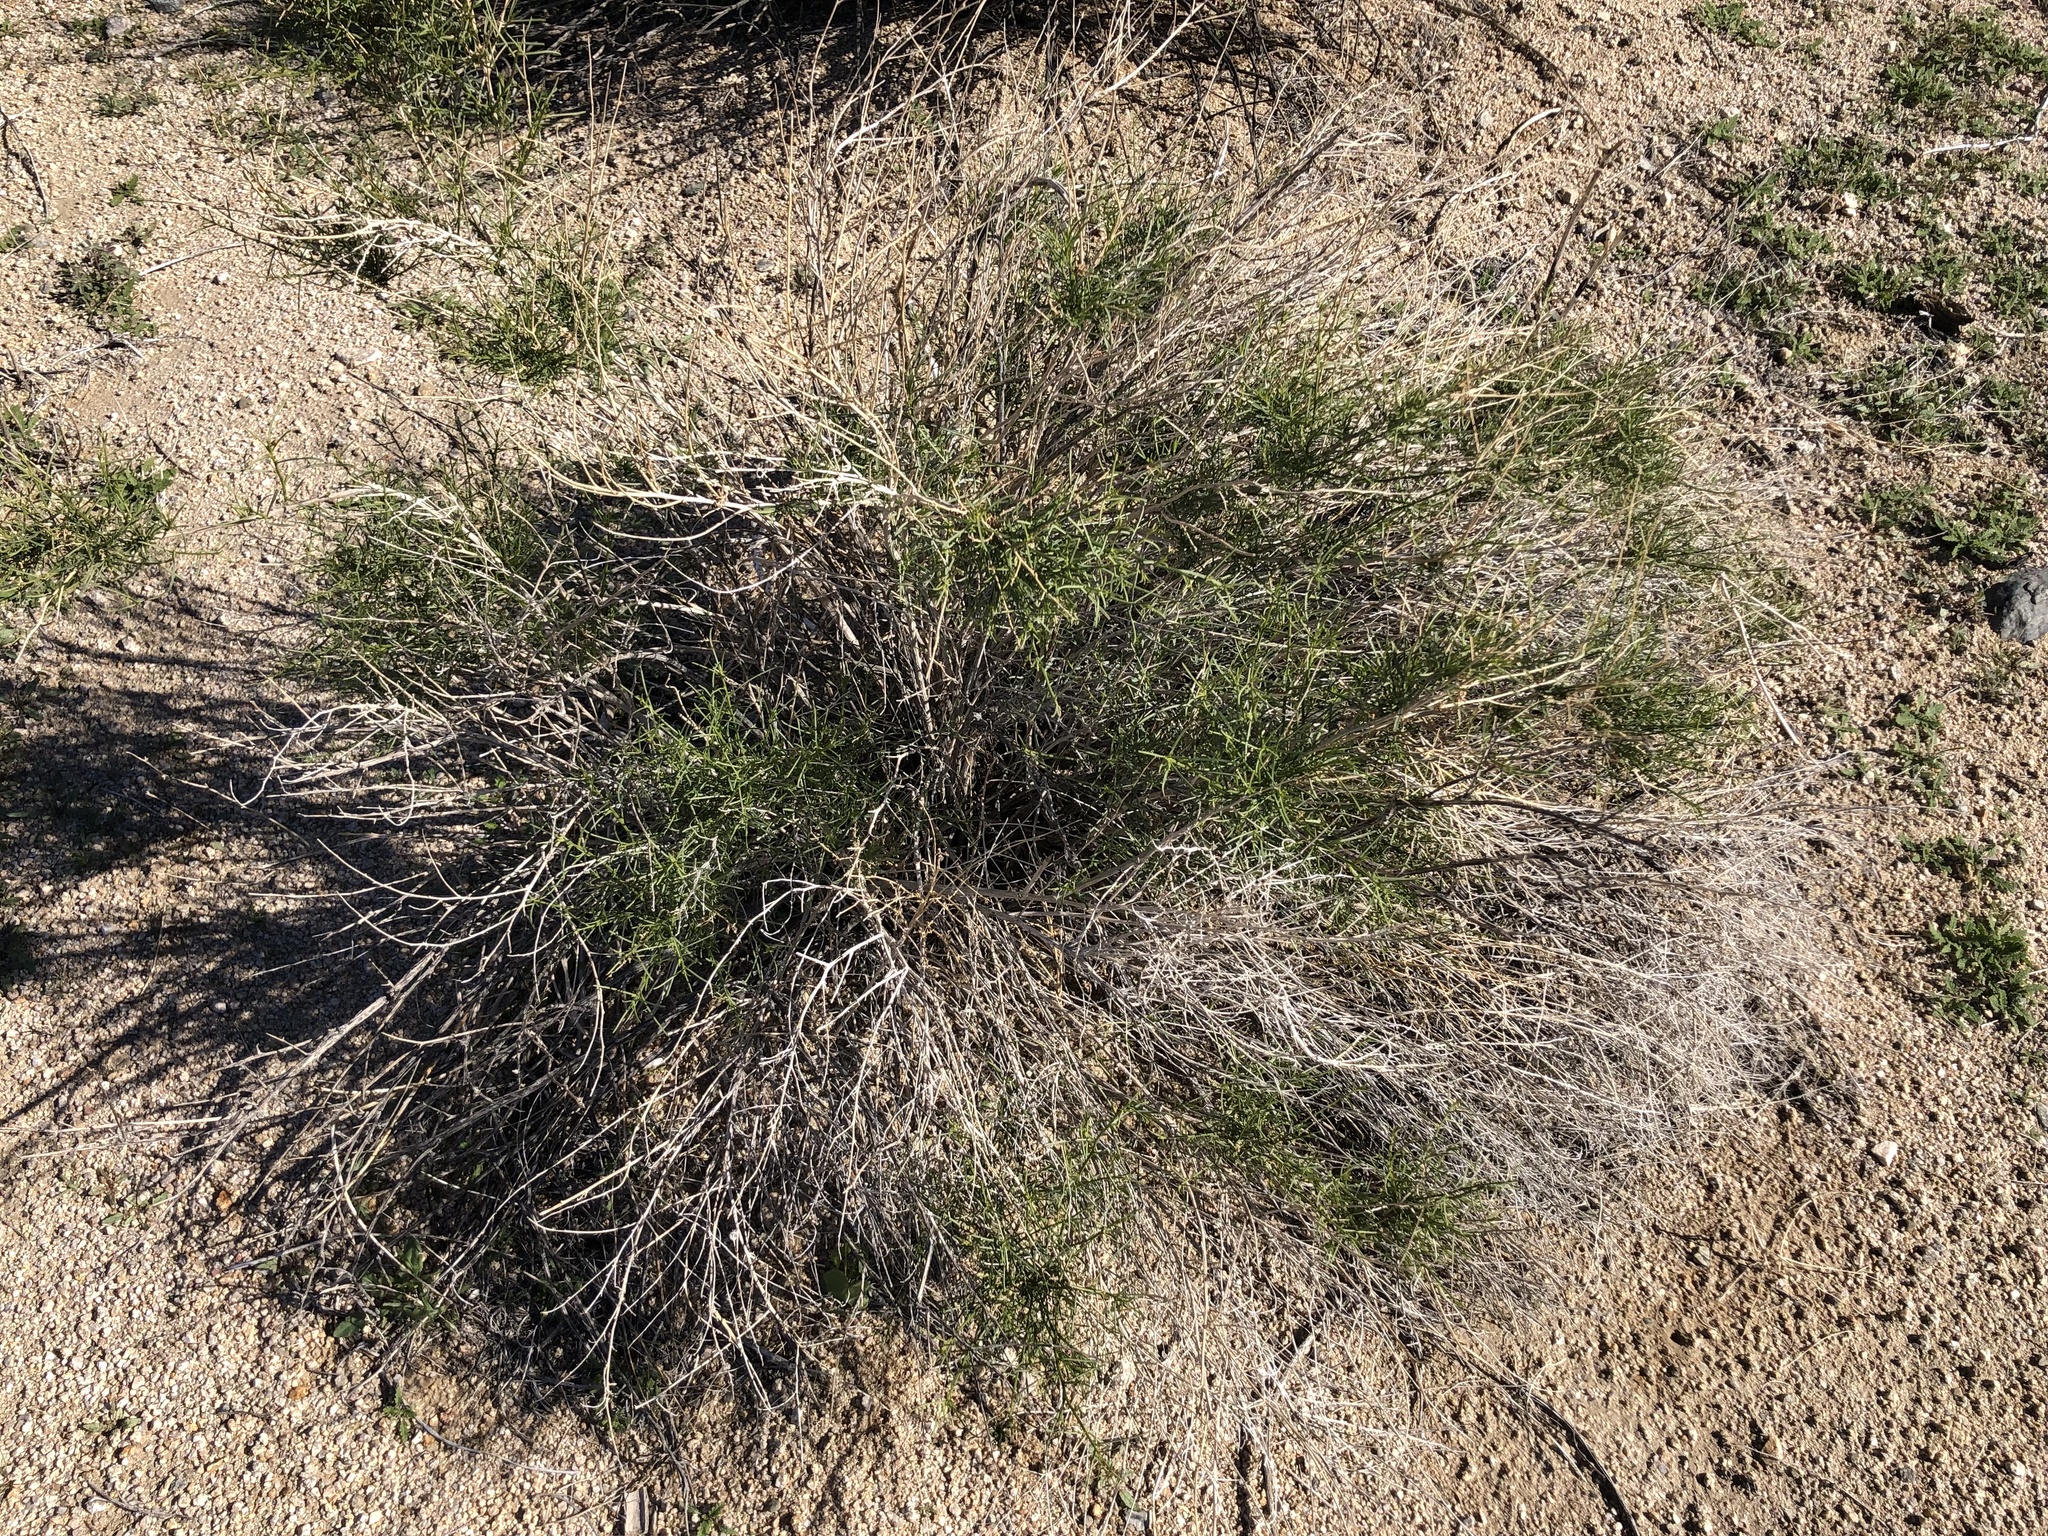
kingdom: Plantae
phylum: Tracheophyta
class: Magnoliopsida
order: Asterales
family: Asteraceae
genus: Ambrosia
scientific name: Ambrosia salsola
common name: Burrobrush
